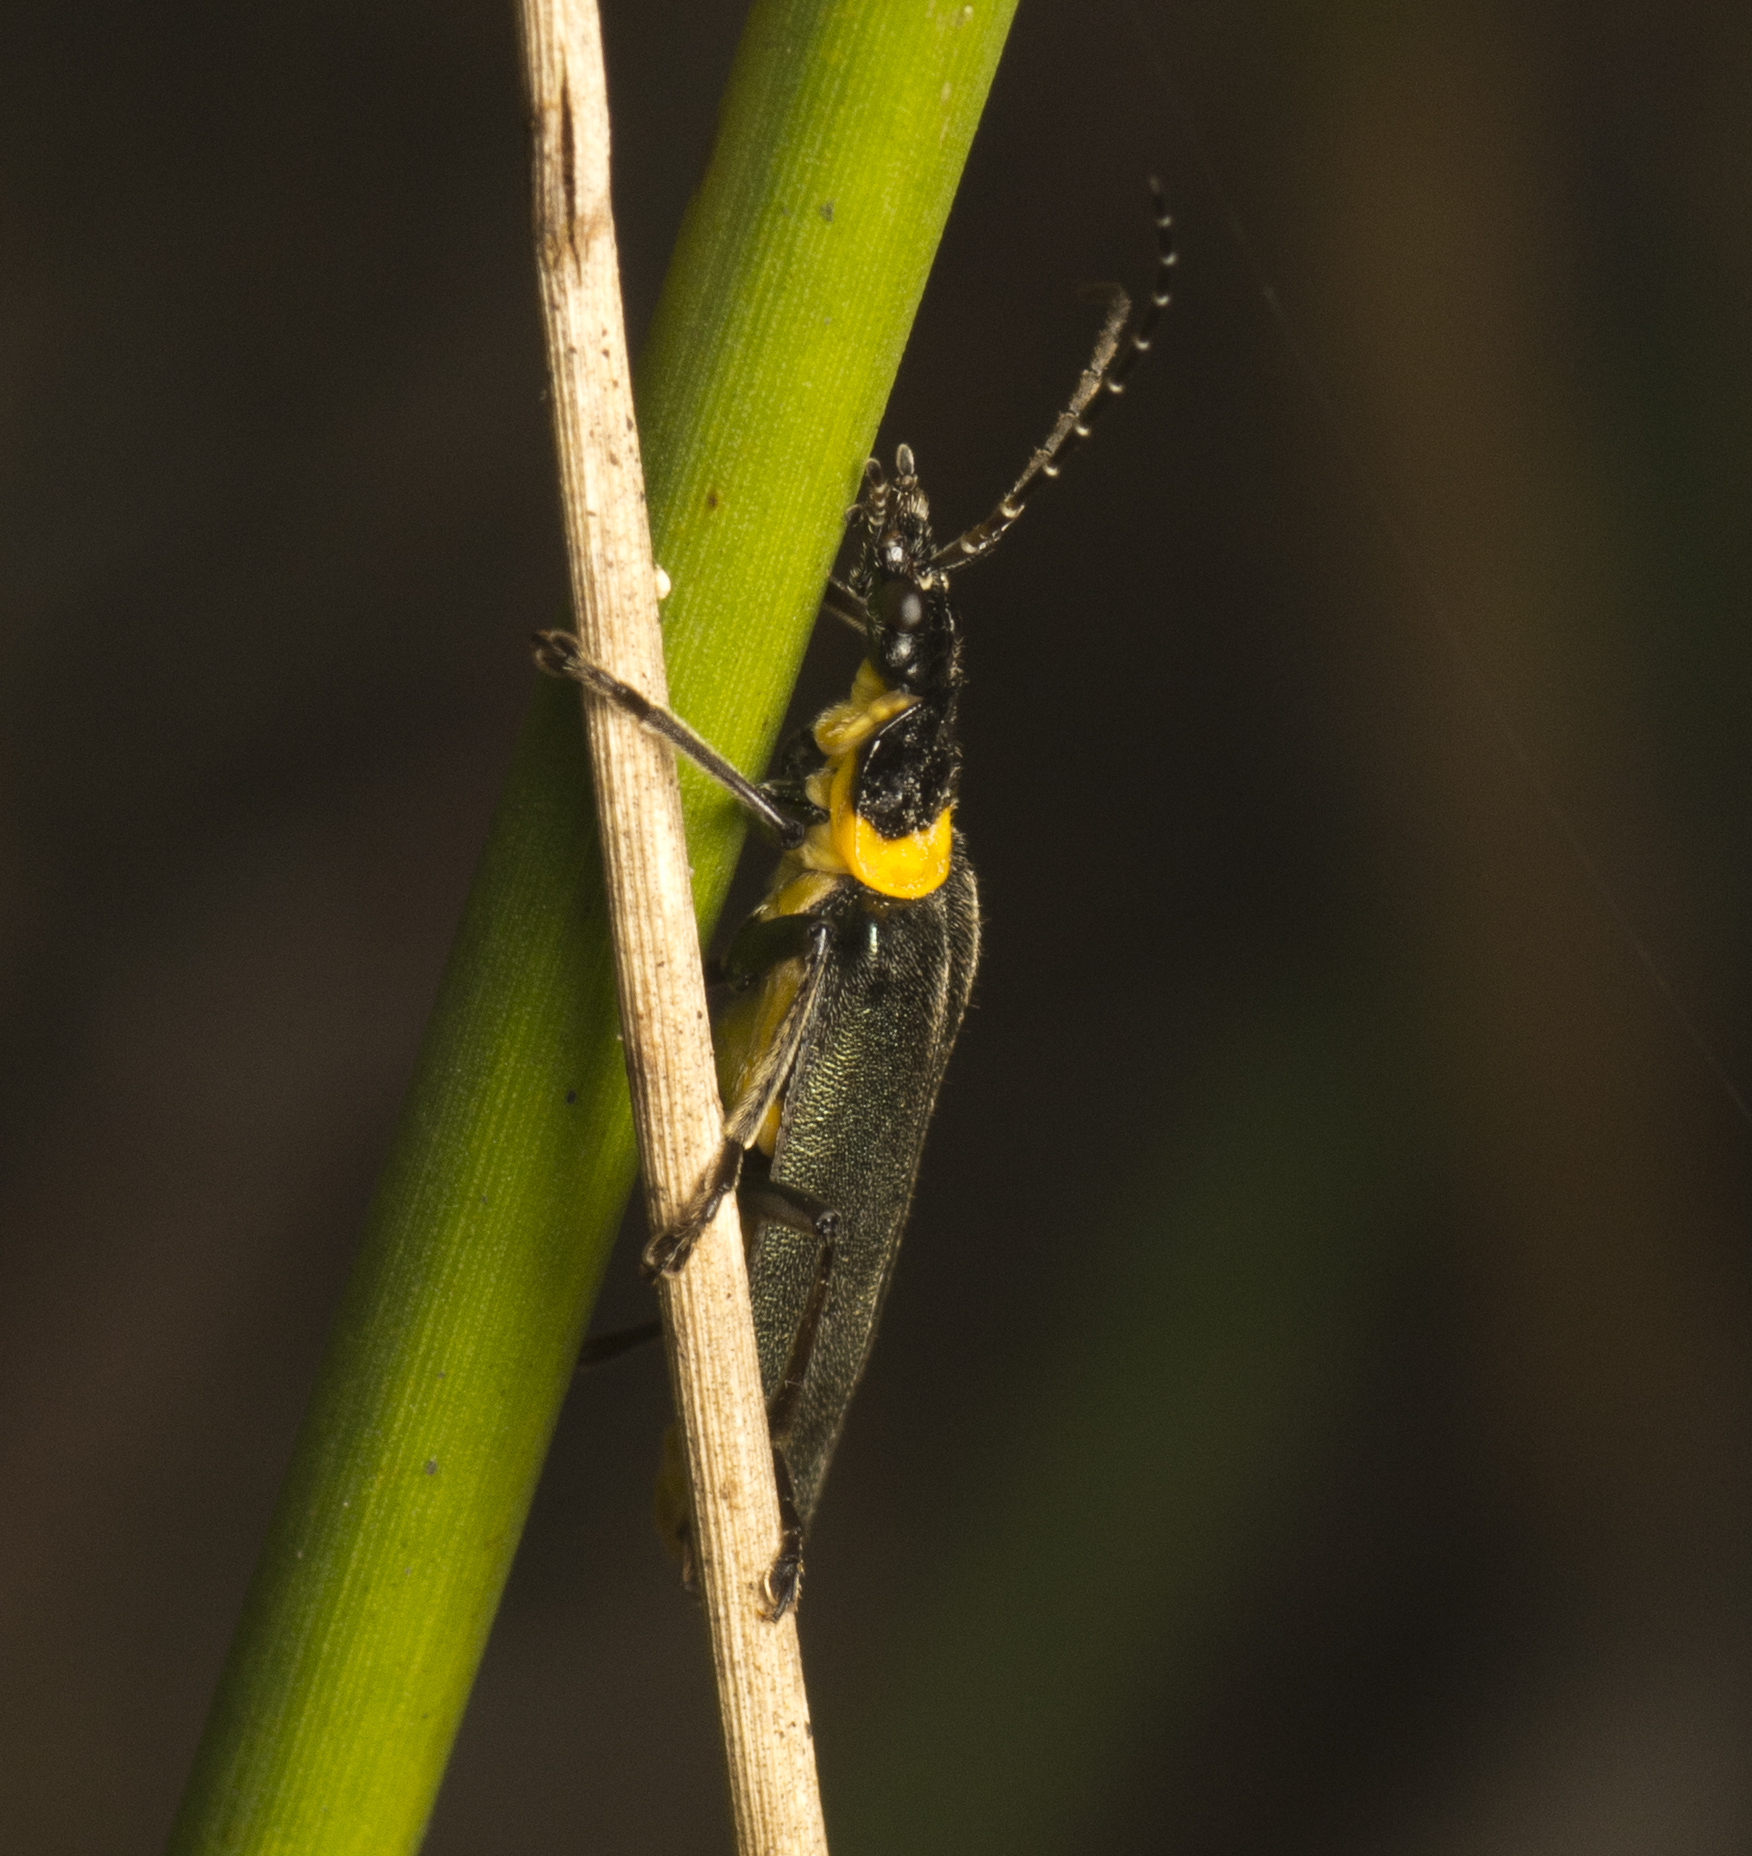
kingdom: Animalia
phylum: Arthropoda
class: Insecta
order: Coleoptera
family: Cantharidae
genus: Chauliognathus
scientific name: Chauliognathus
